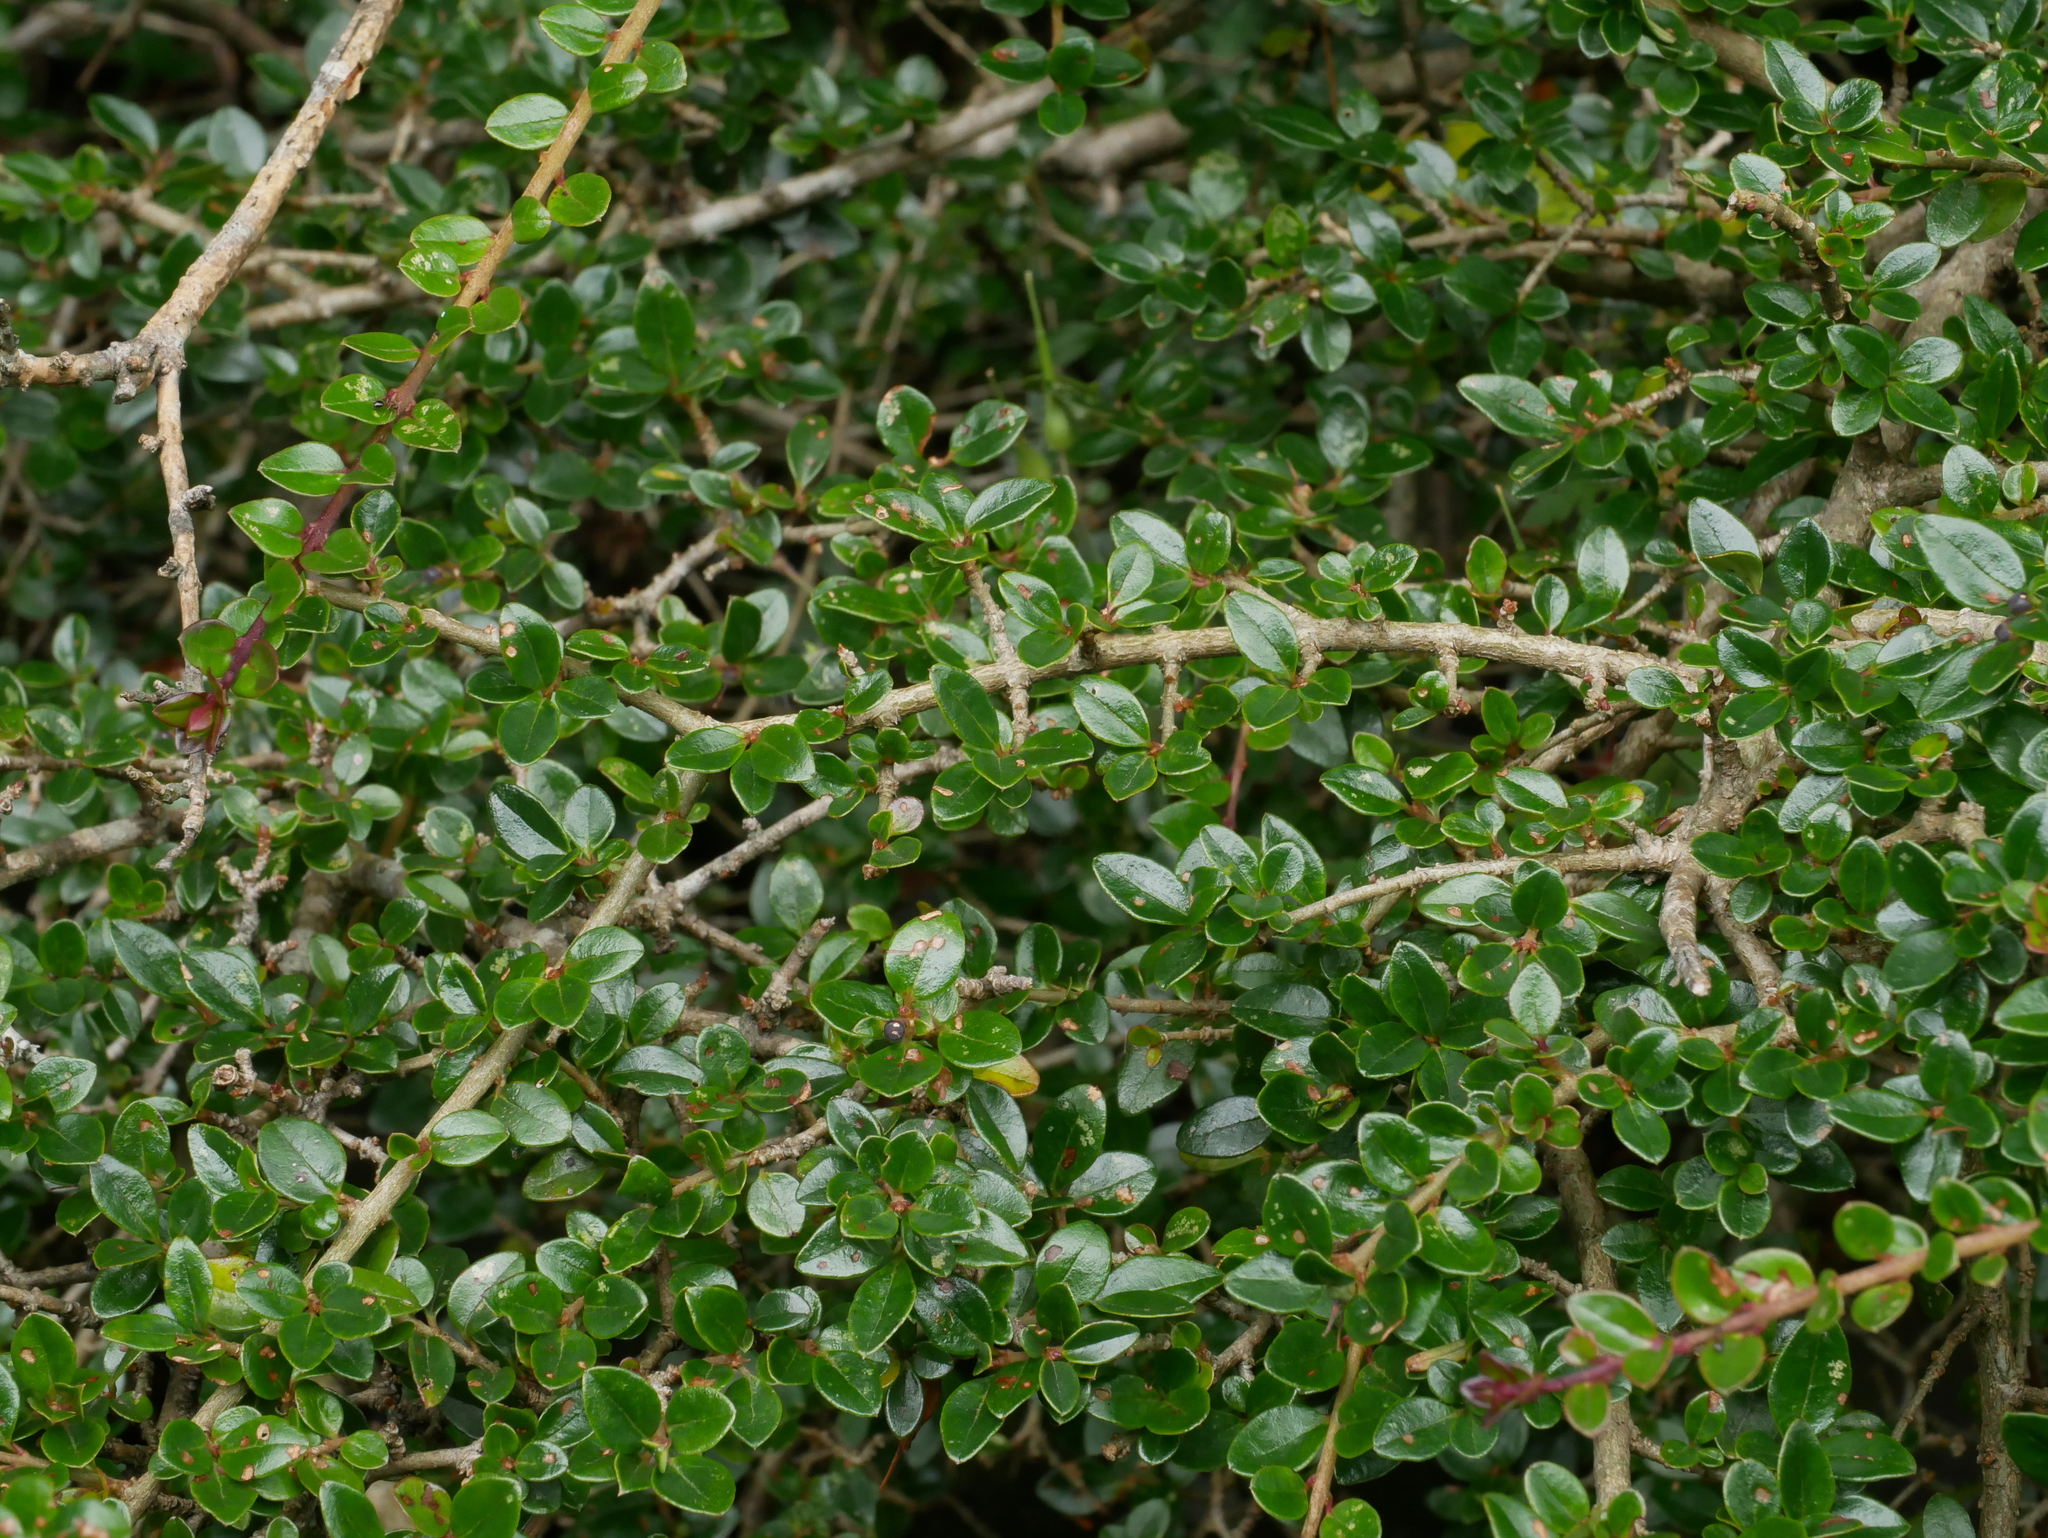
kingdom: Plantae
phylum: Tracheophyta
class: Magnoliopsida
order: Lamiales
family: Oleaceae
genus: Ligustrum
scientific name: Ligustrum morrisonense
